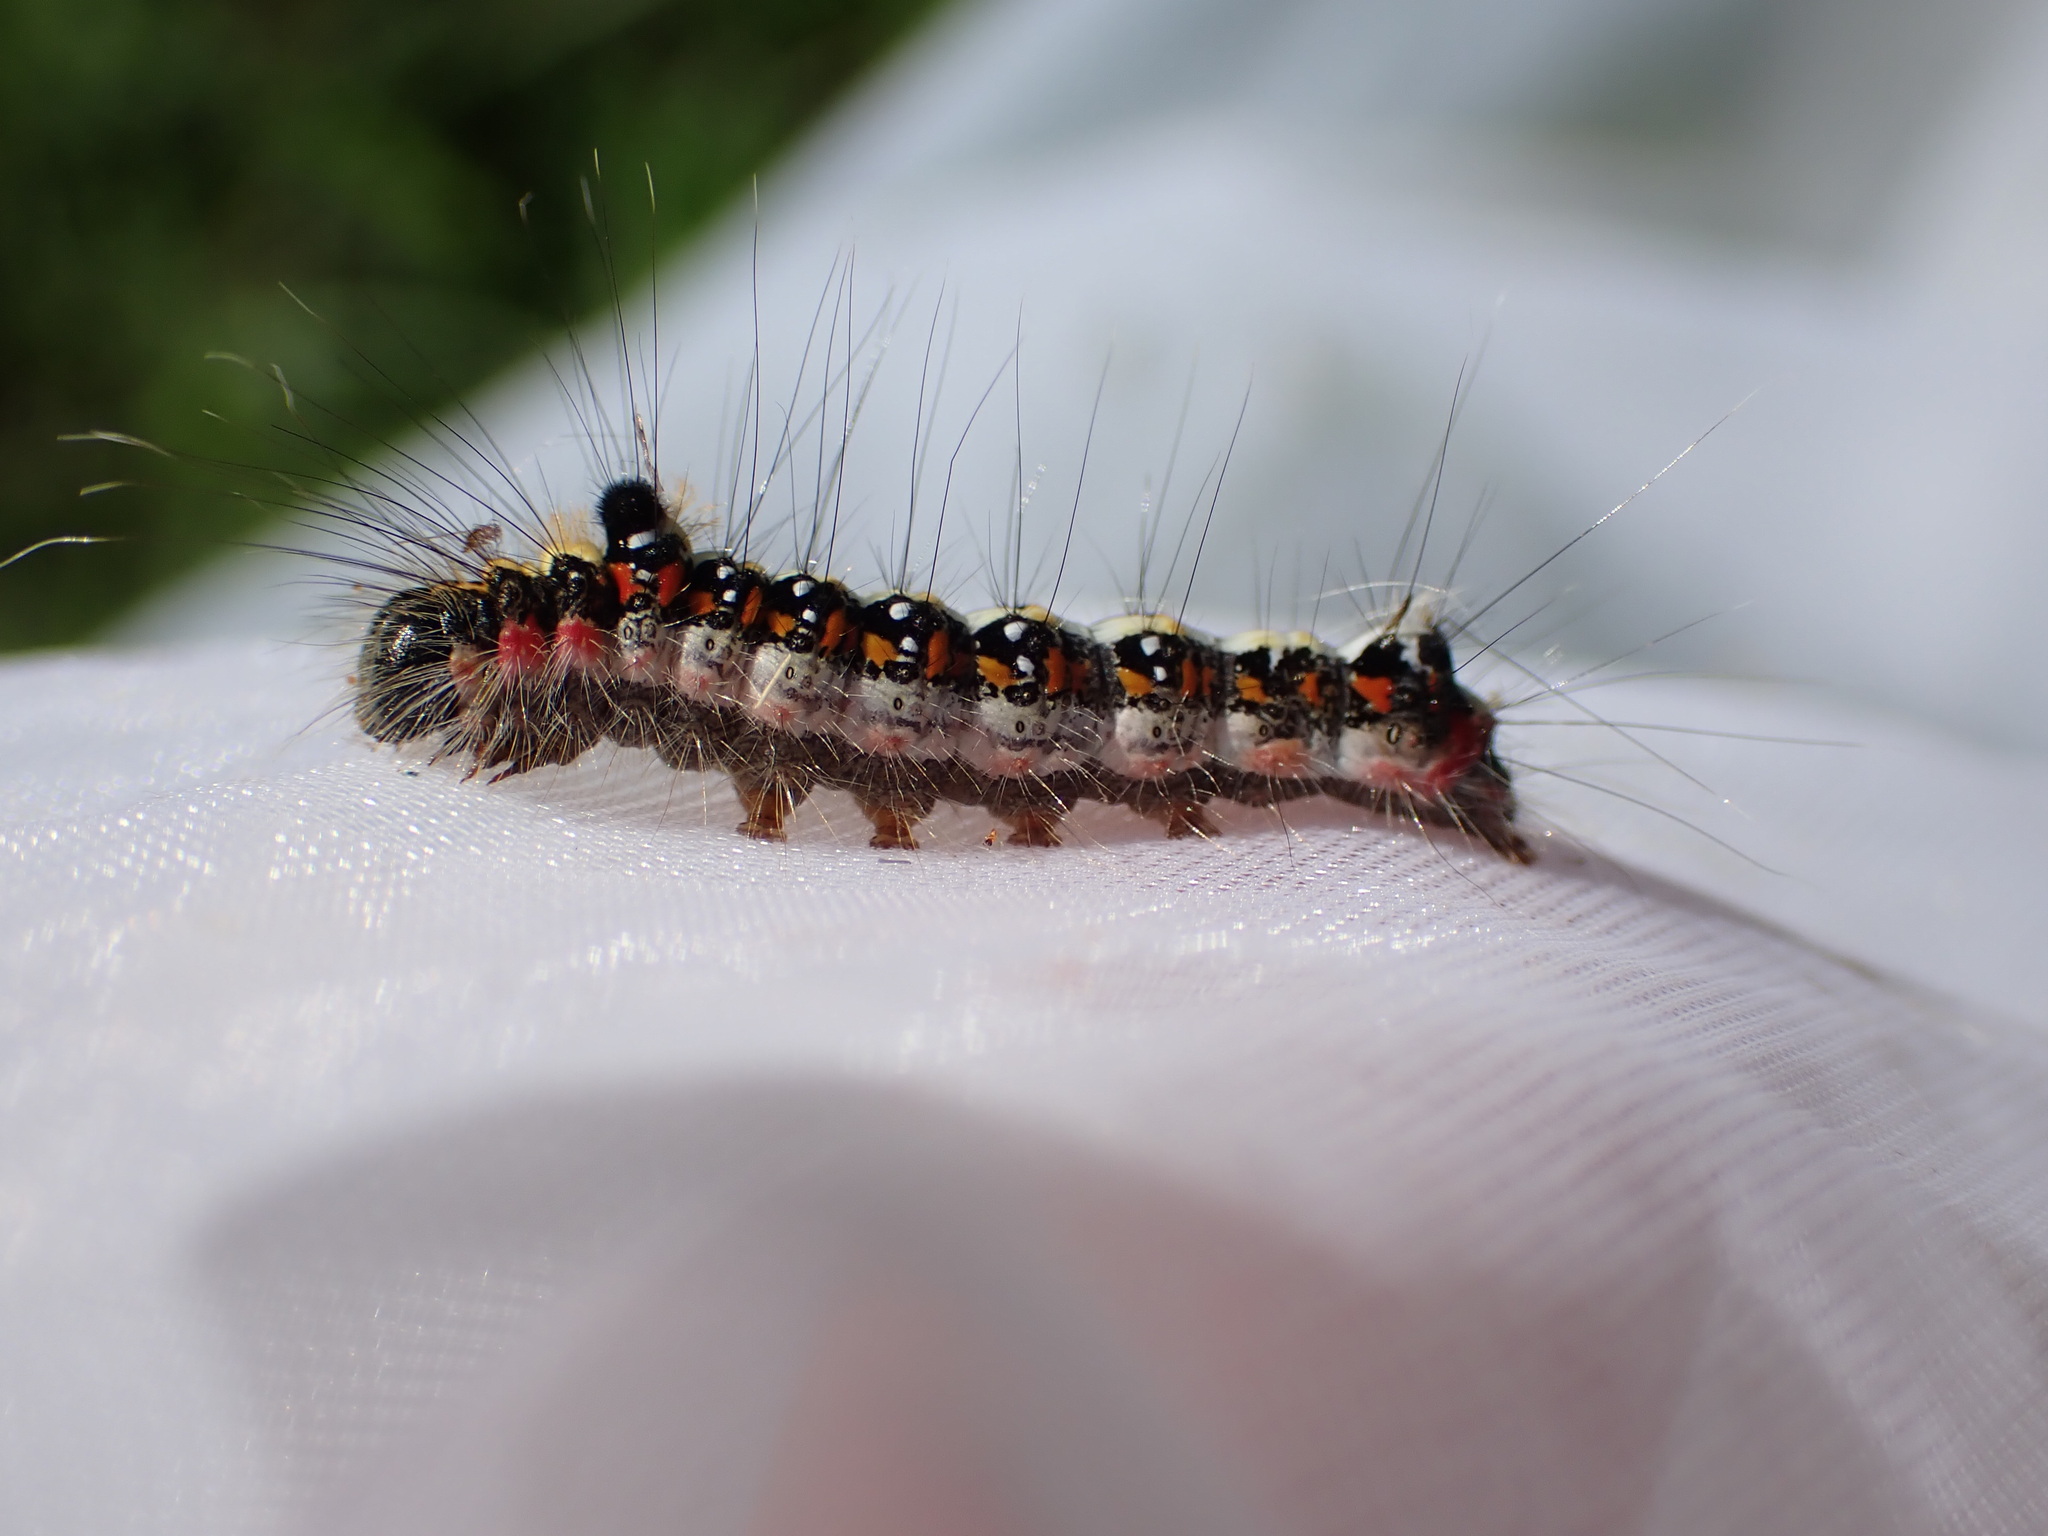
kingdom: Animalia
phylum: Arthropoda
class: Insecta
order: Lepidoptera
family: Noctuidae
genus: Acronicta
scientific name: Acronicta tridens
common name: Dark dagger
